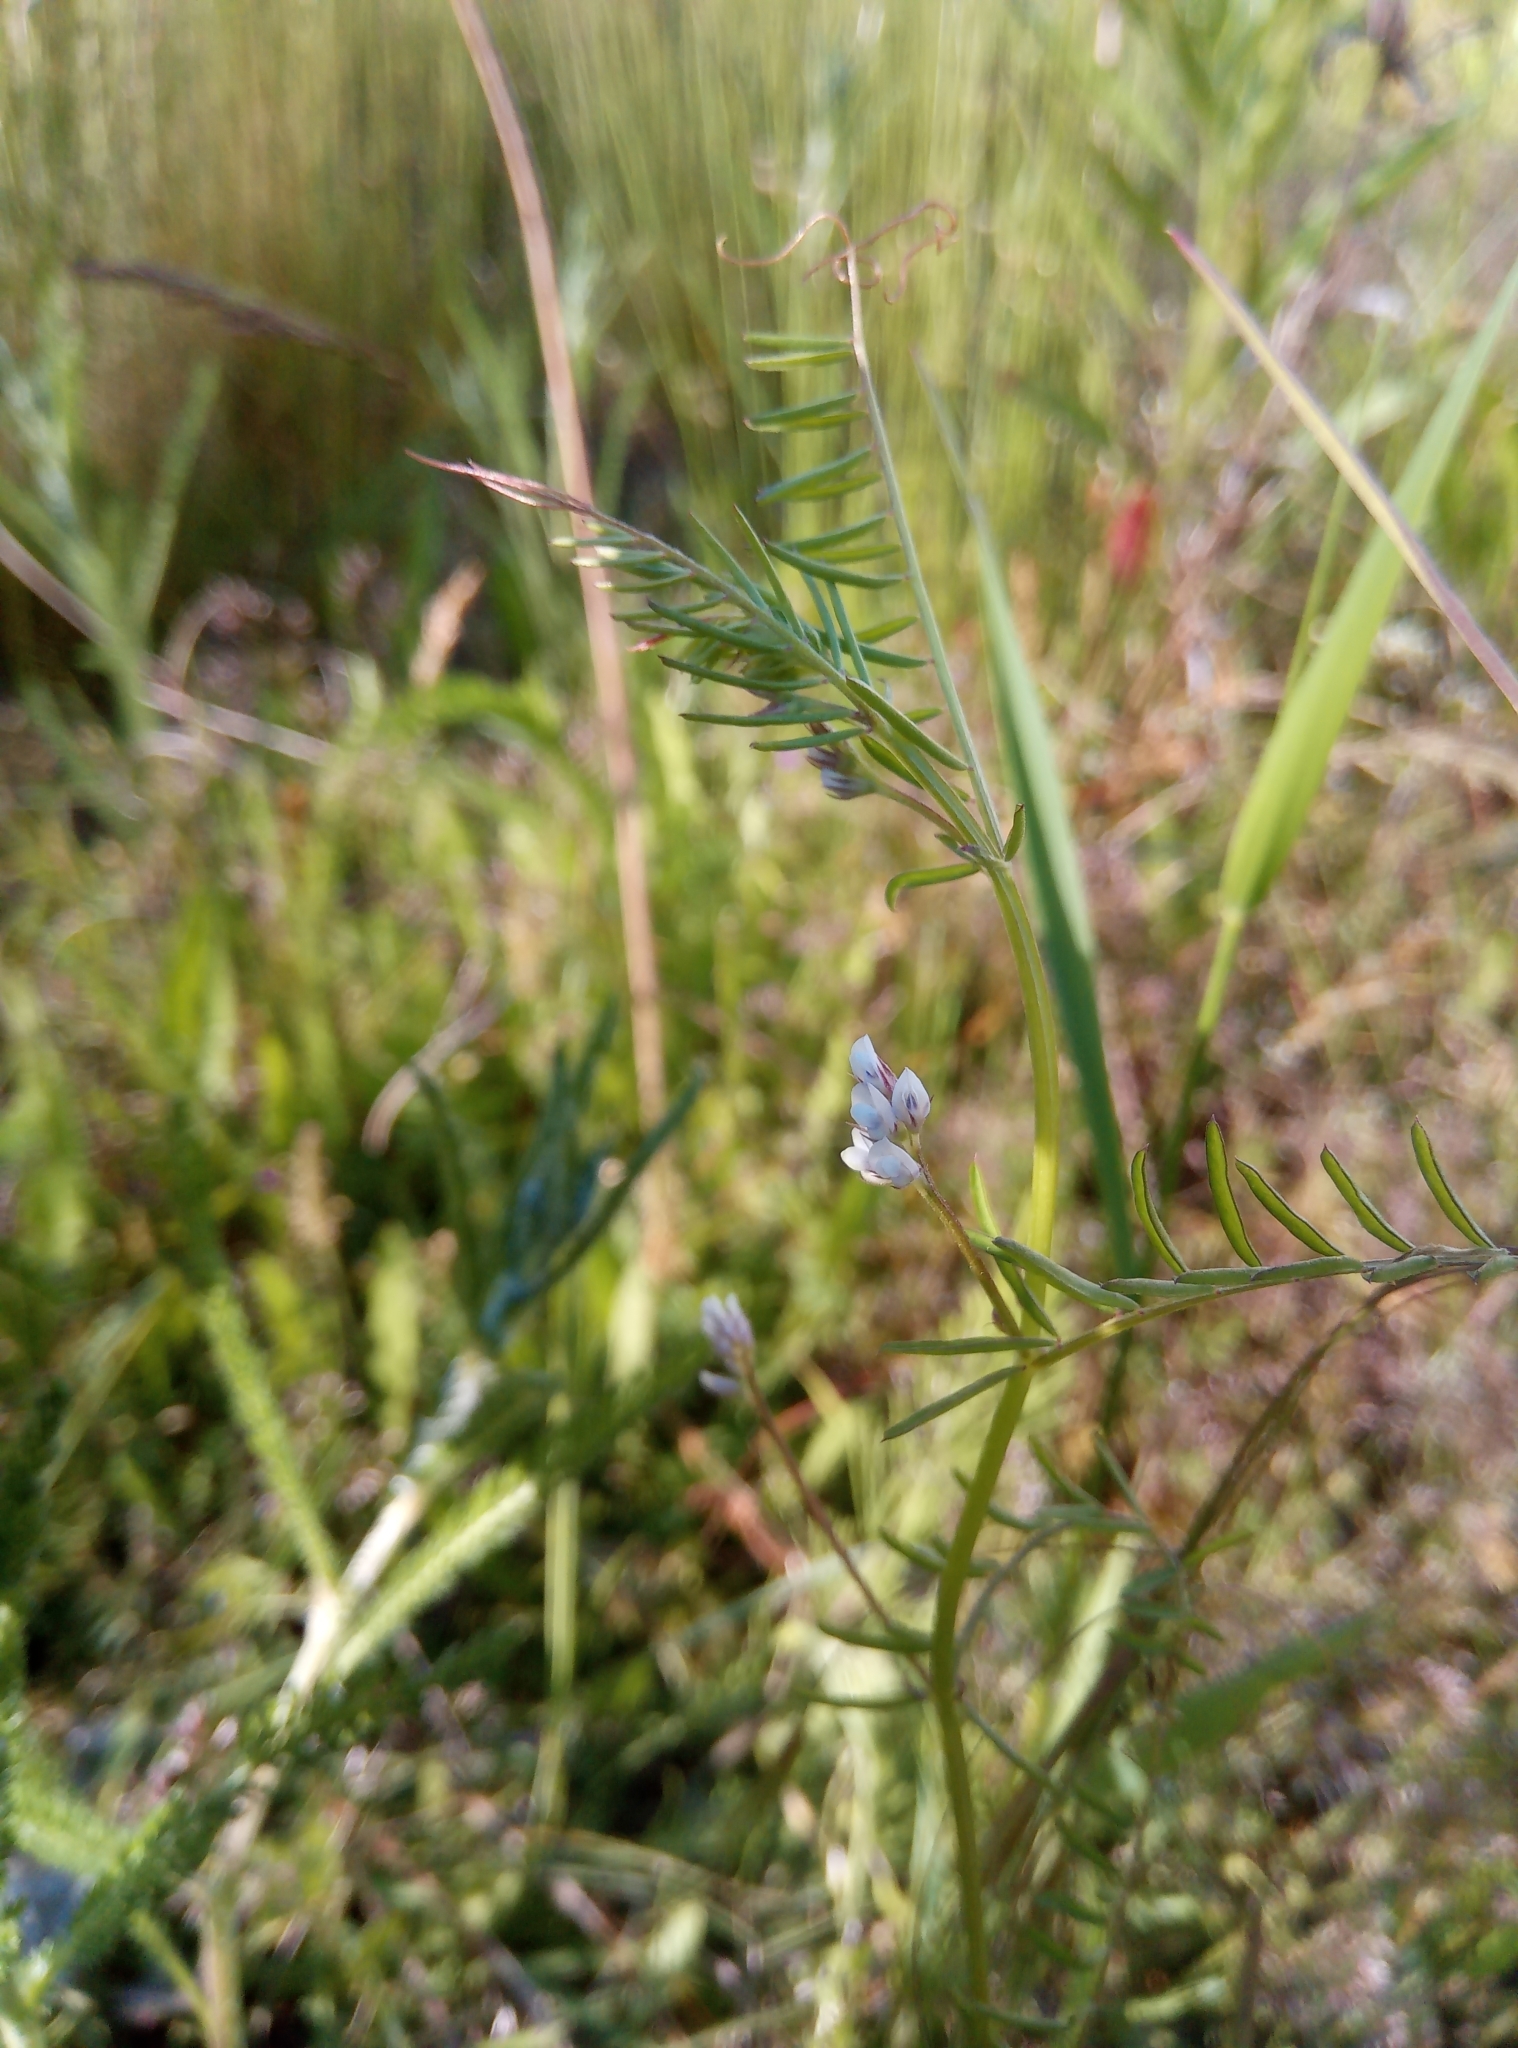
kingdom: Plantae
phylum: Tracheophyta
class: Magnoliopsida
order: Fabales
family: Fabaceae
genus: Vicia
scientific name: Vicia hirsuta
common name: Tiny vetch
